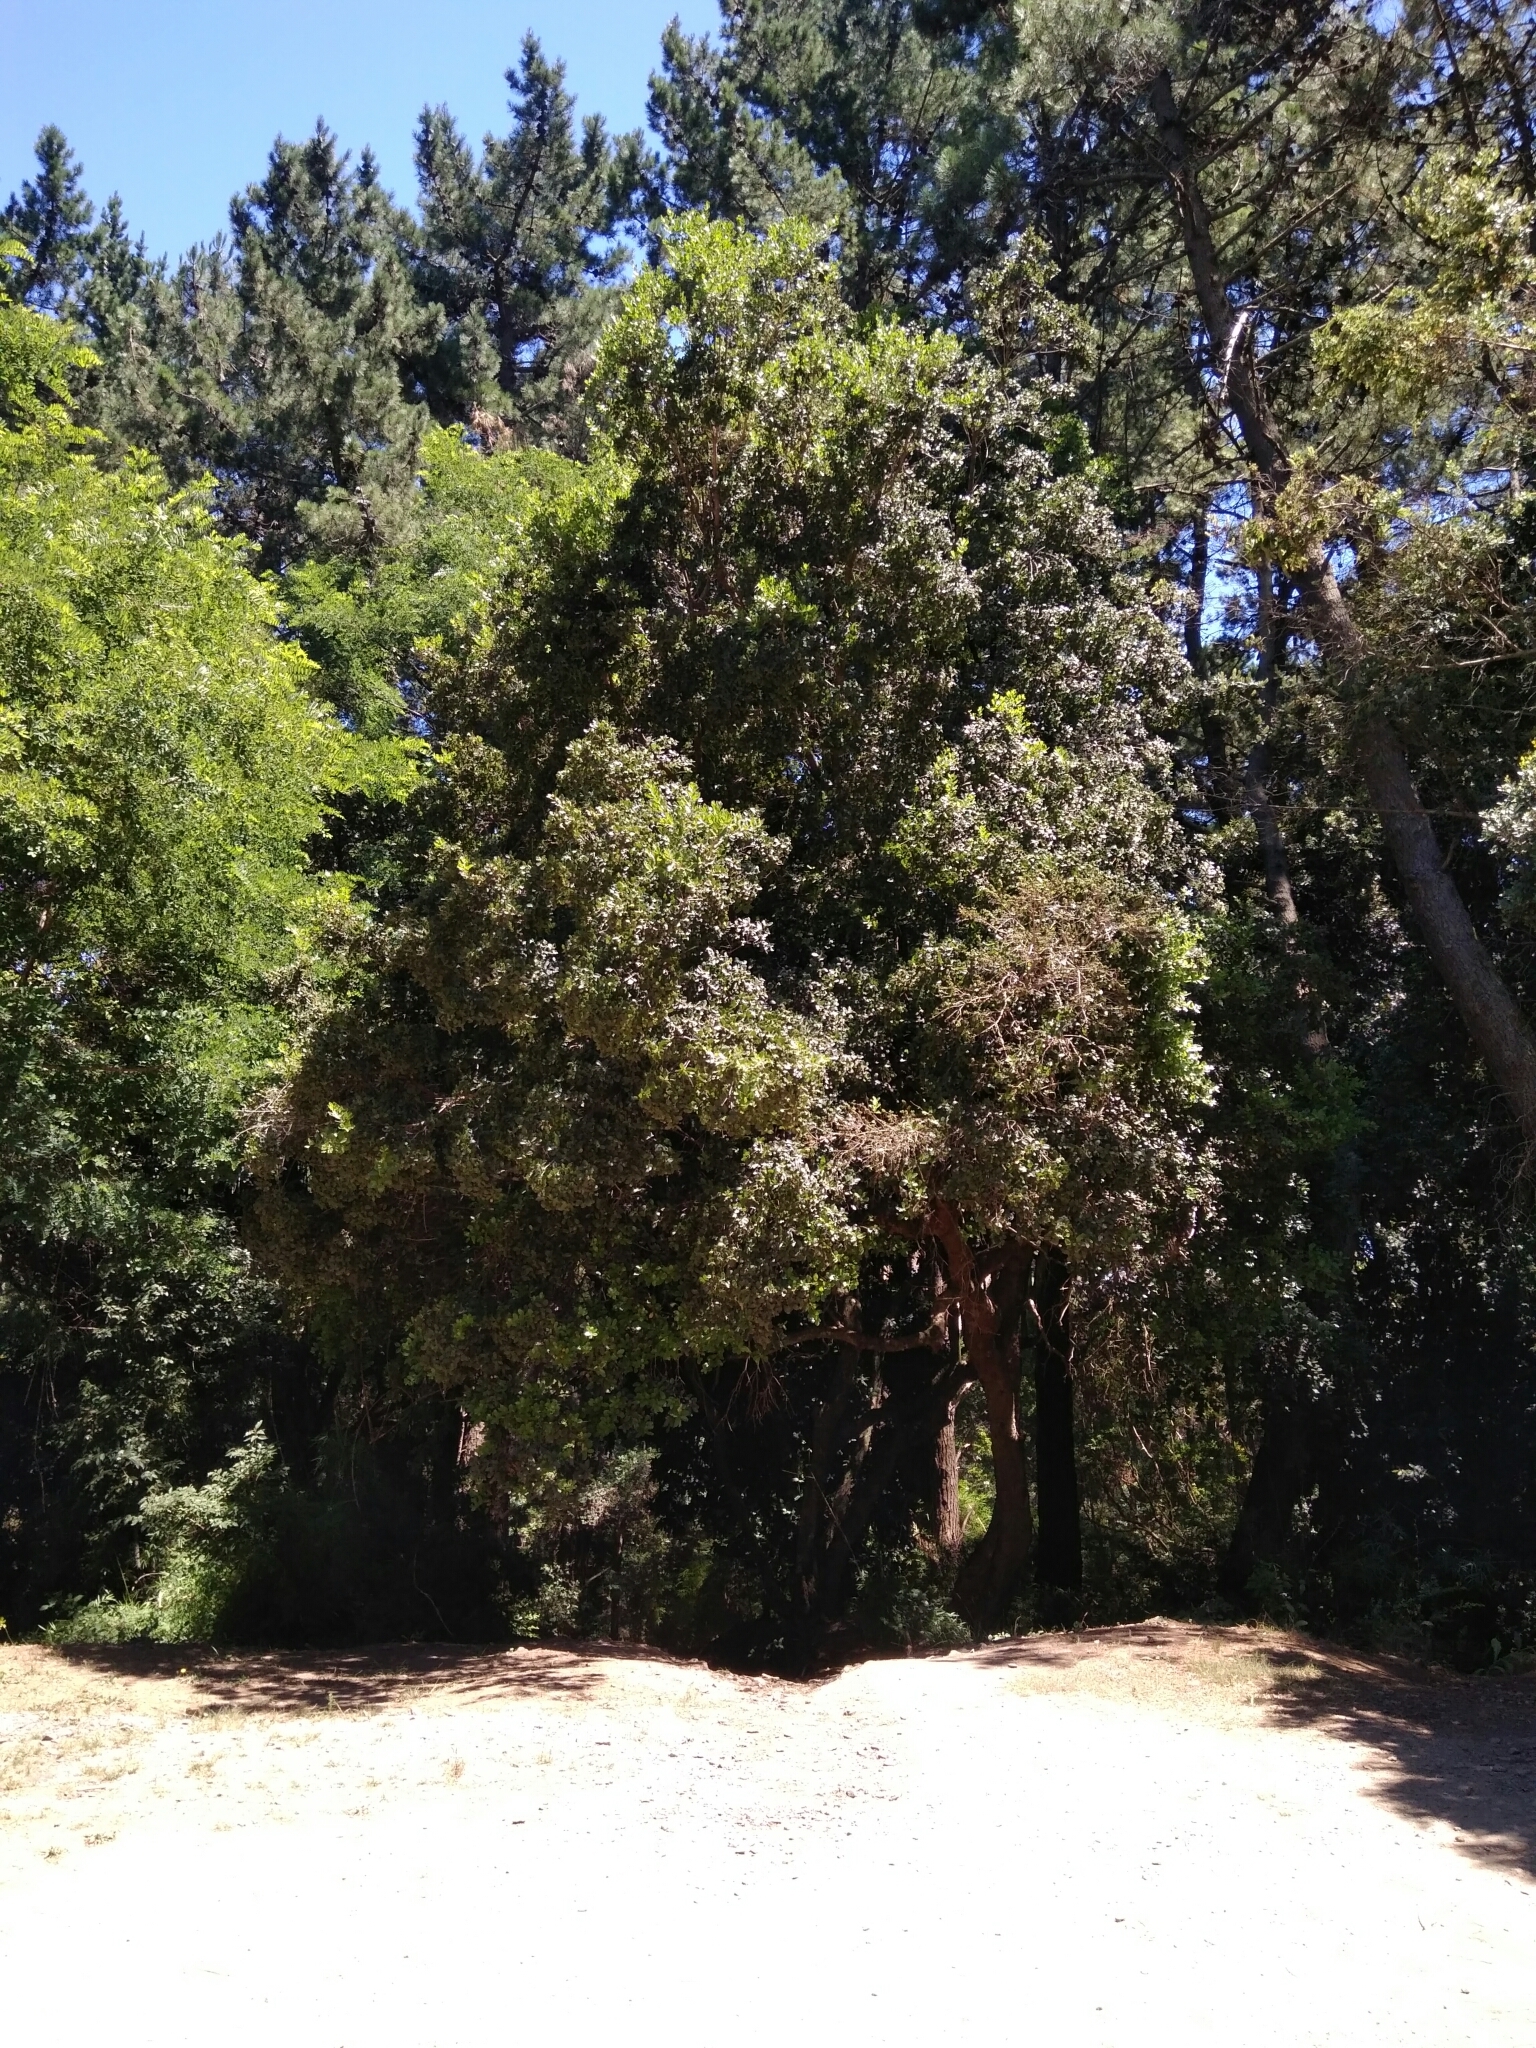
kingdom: Plantae
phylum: Tracheophyta
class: Magnoliopsida
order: Sapindales
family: Anacardiaceae
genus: Lithraea
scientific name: Lithraea caustica
